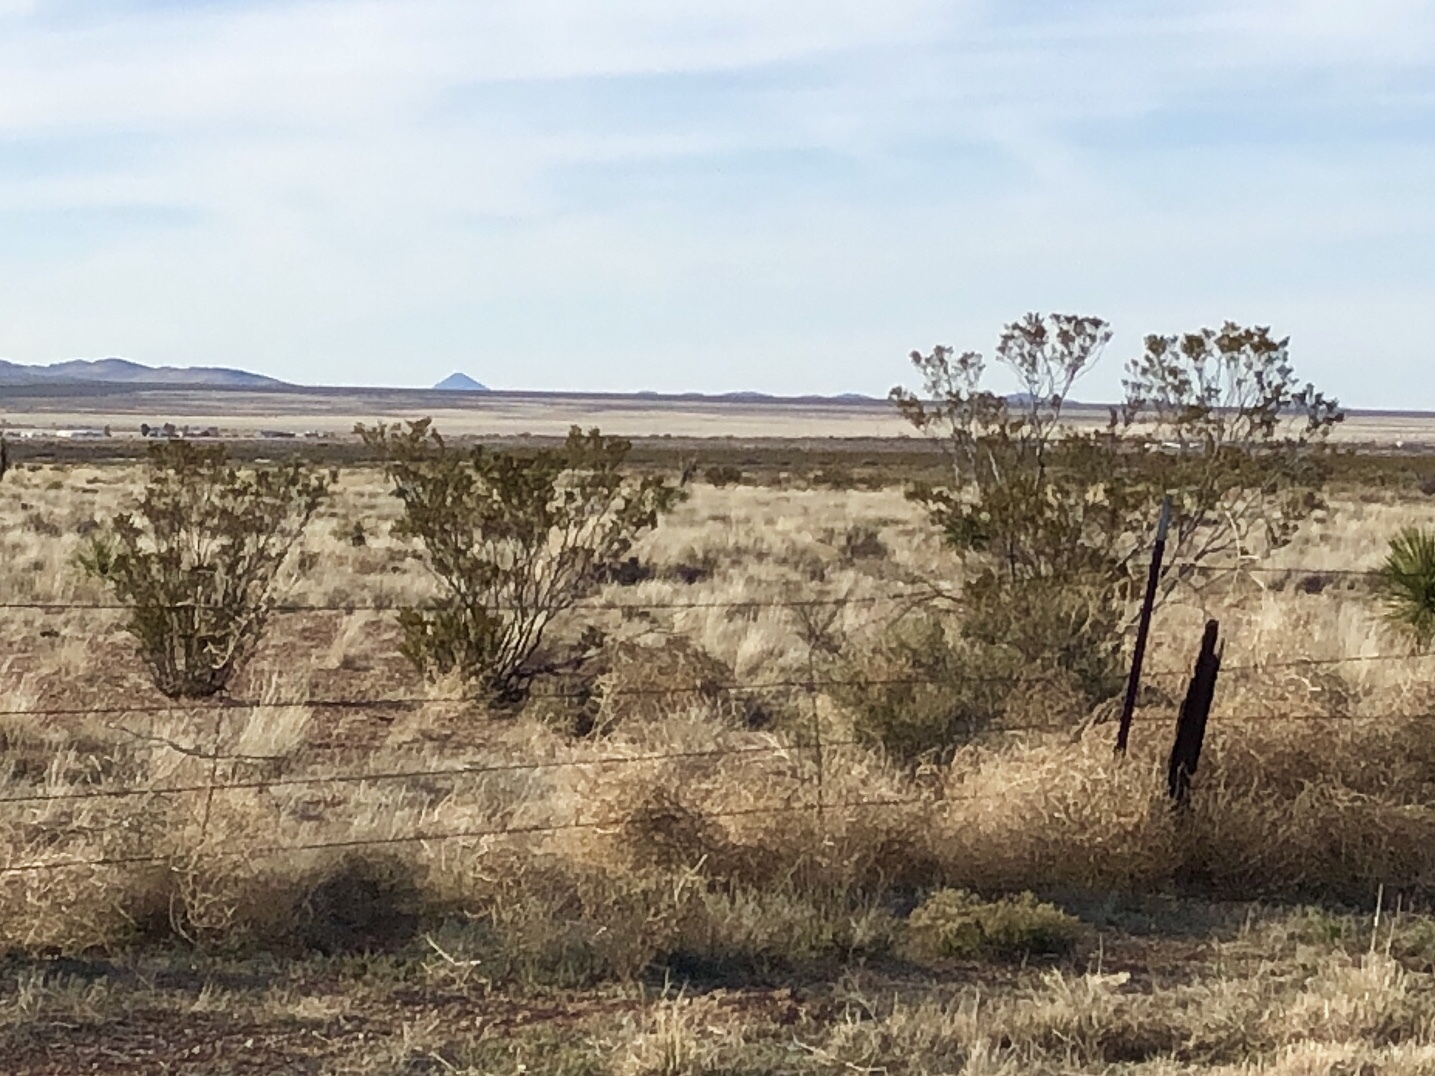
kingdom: Plantae
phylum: Tracheophyta
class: Magnoliopsida
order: Zygophyllales
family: Zygophyllaceae
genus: Larrea
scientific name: Larrea tridentata
